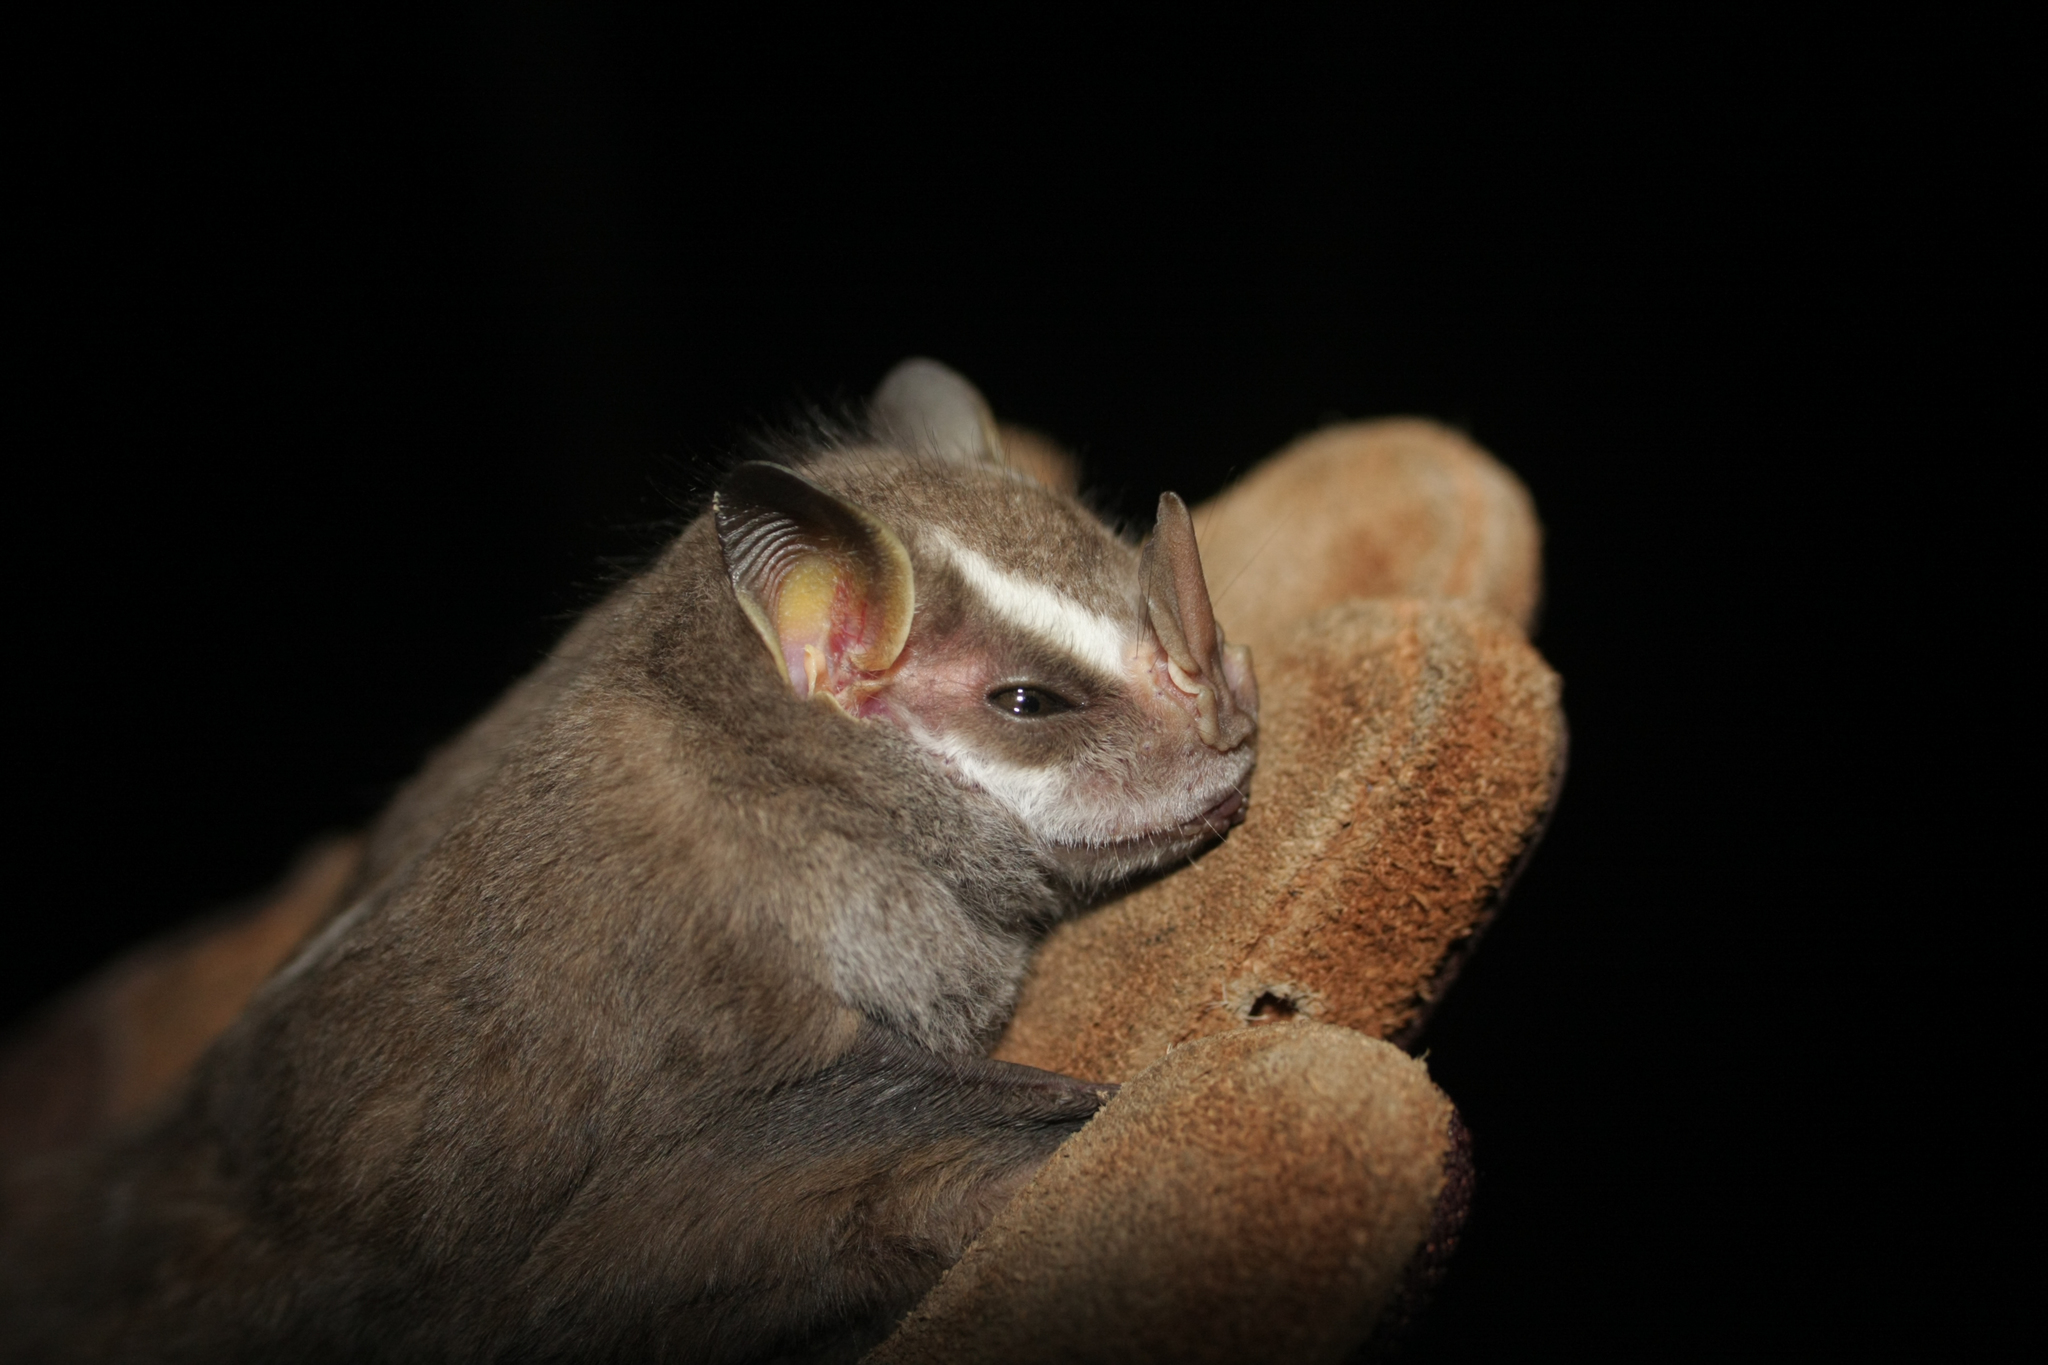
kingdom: Animalia
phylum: Chordata
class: Mammalia
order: Chiroptera
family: Phyllostomidae
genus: Chiroderma
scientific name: Chiroderma salvini
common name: Salvin's big-eyed bat
